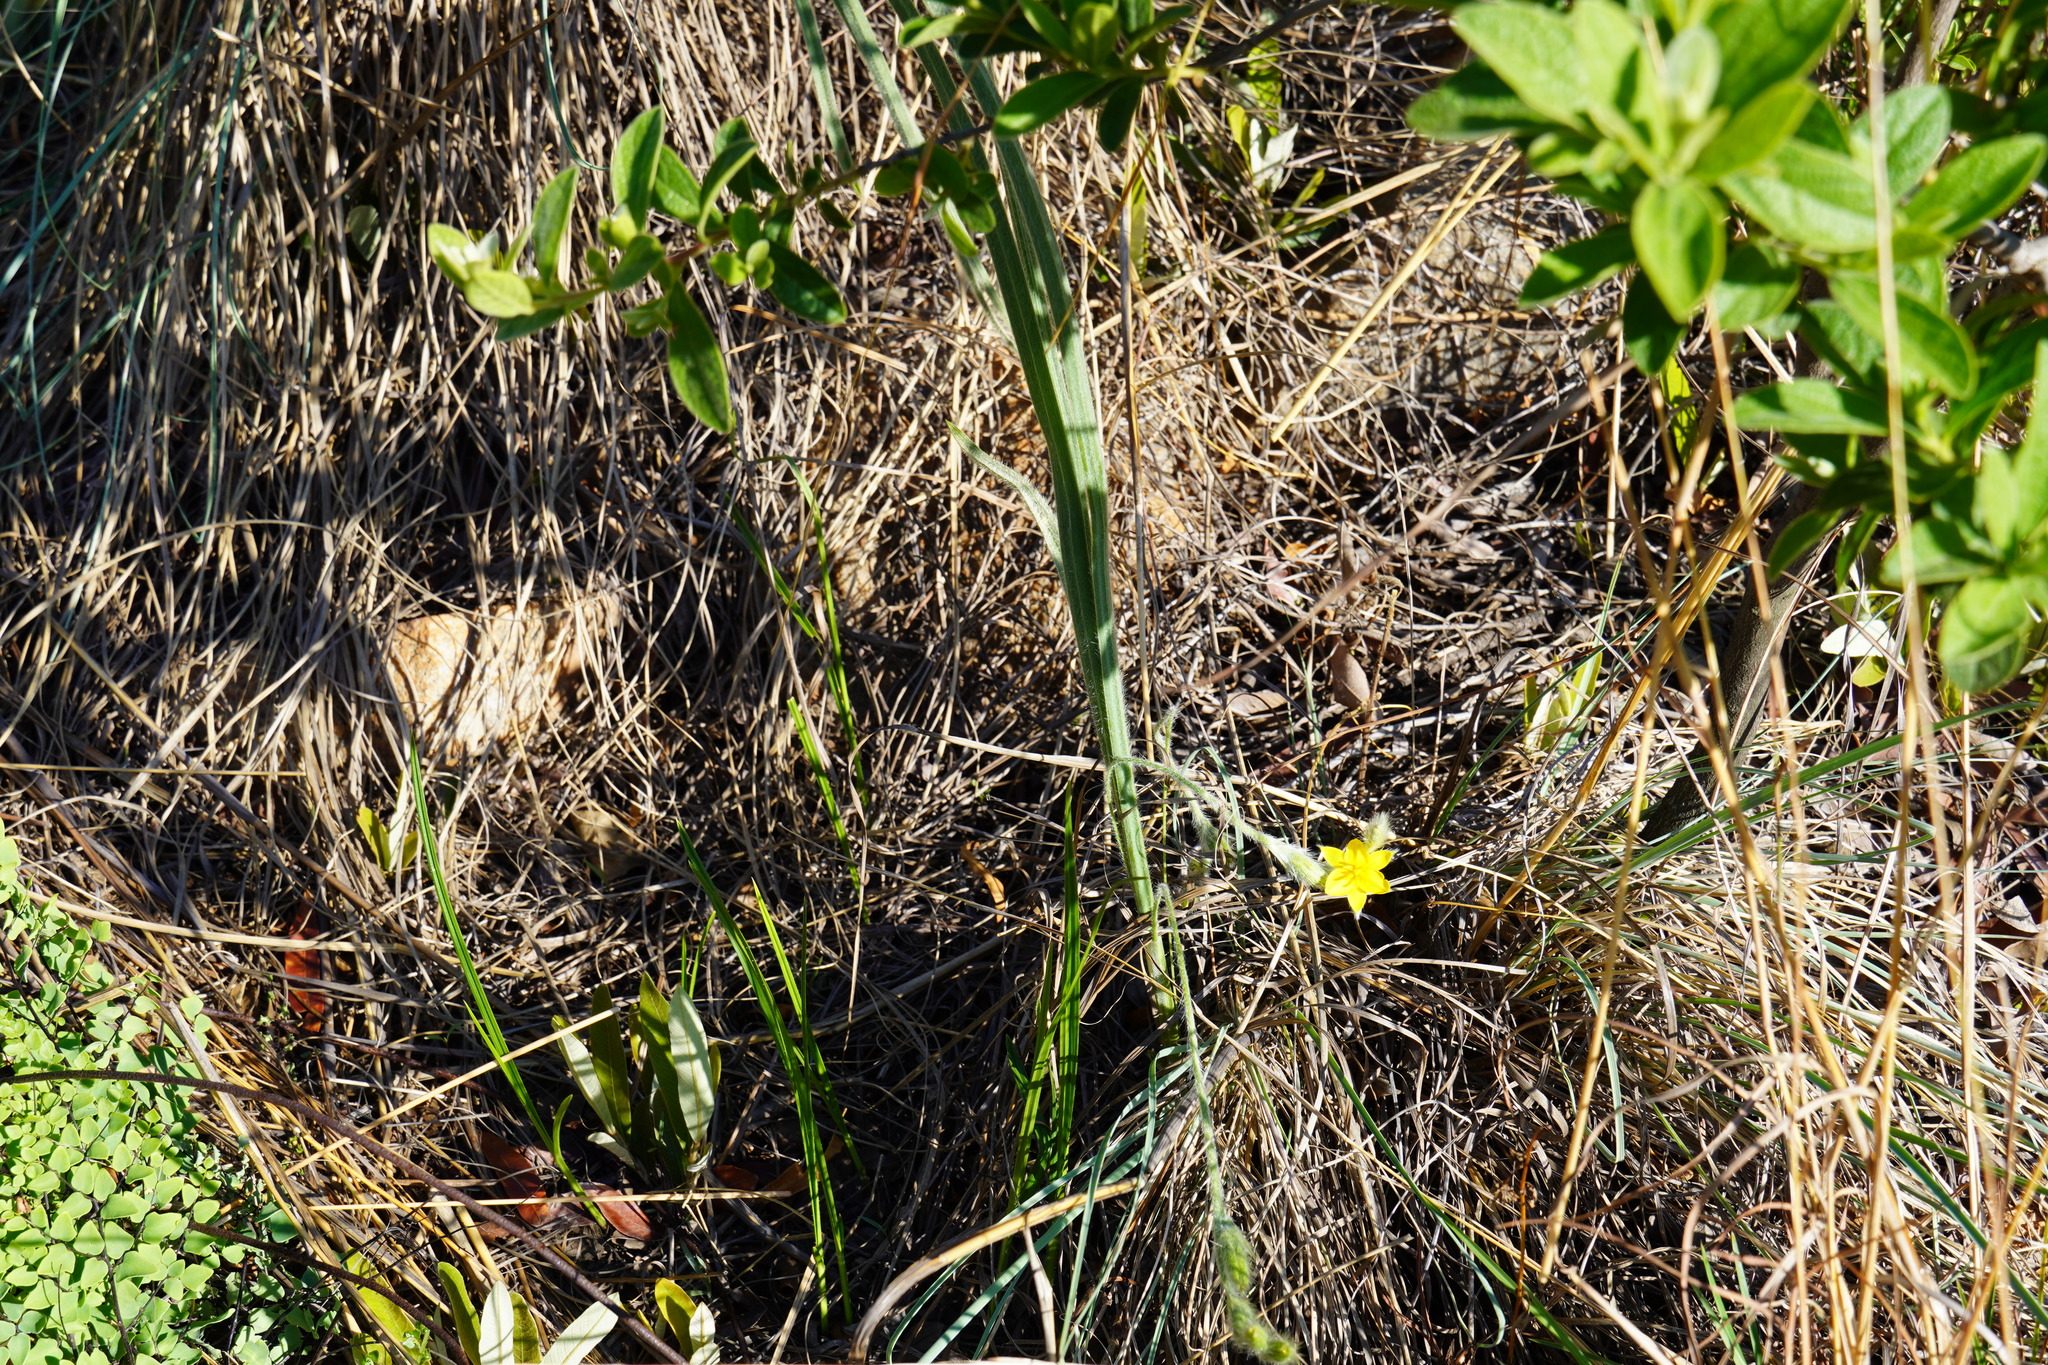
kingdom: Plantae
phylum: Tracheophyta
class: Liliopsida
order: Asparagales
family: Hypoxidaceae
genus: Hypoxis
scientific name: Hypoxis rigidula
